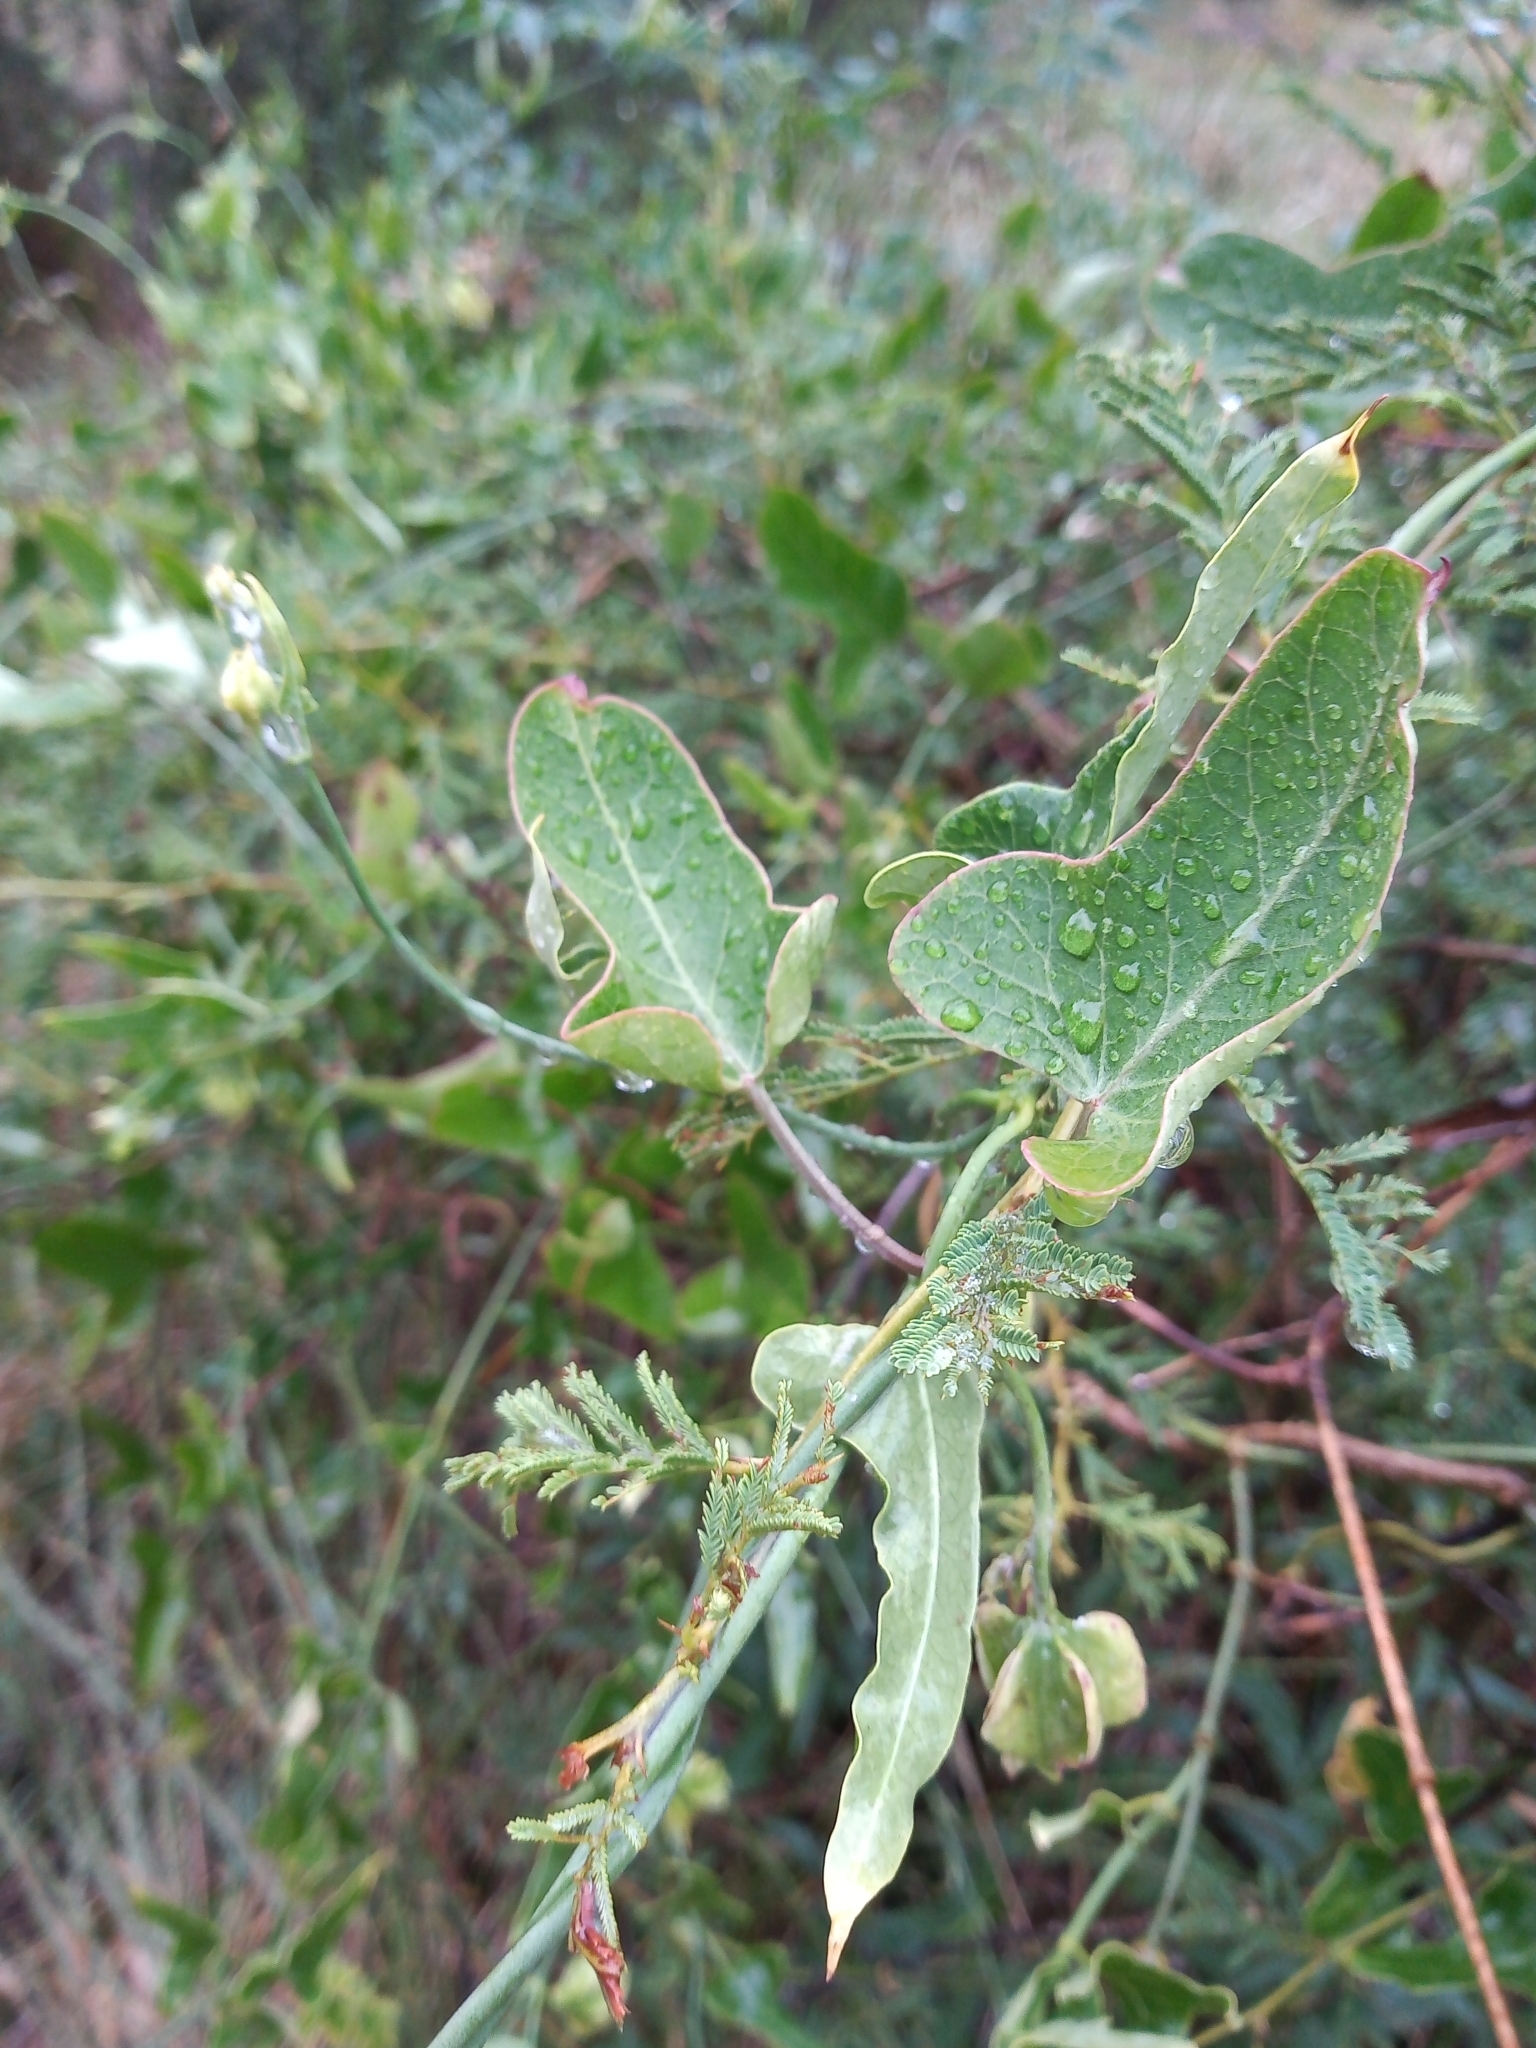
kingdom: Plantae
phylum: Tracheophyta
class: Magnoliopsida
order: Gentianales
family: Apocynaceae
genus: Araujia
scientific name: Araujia megapotamica
